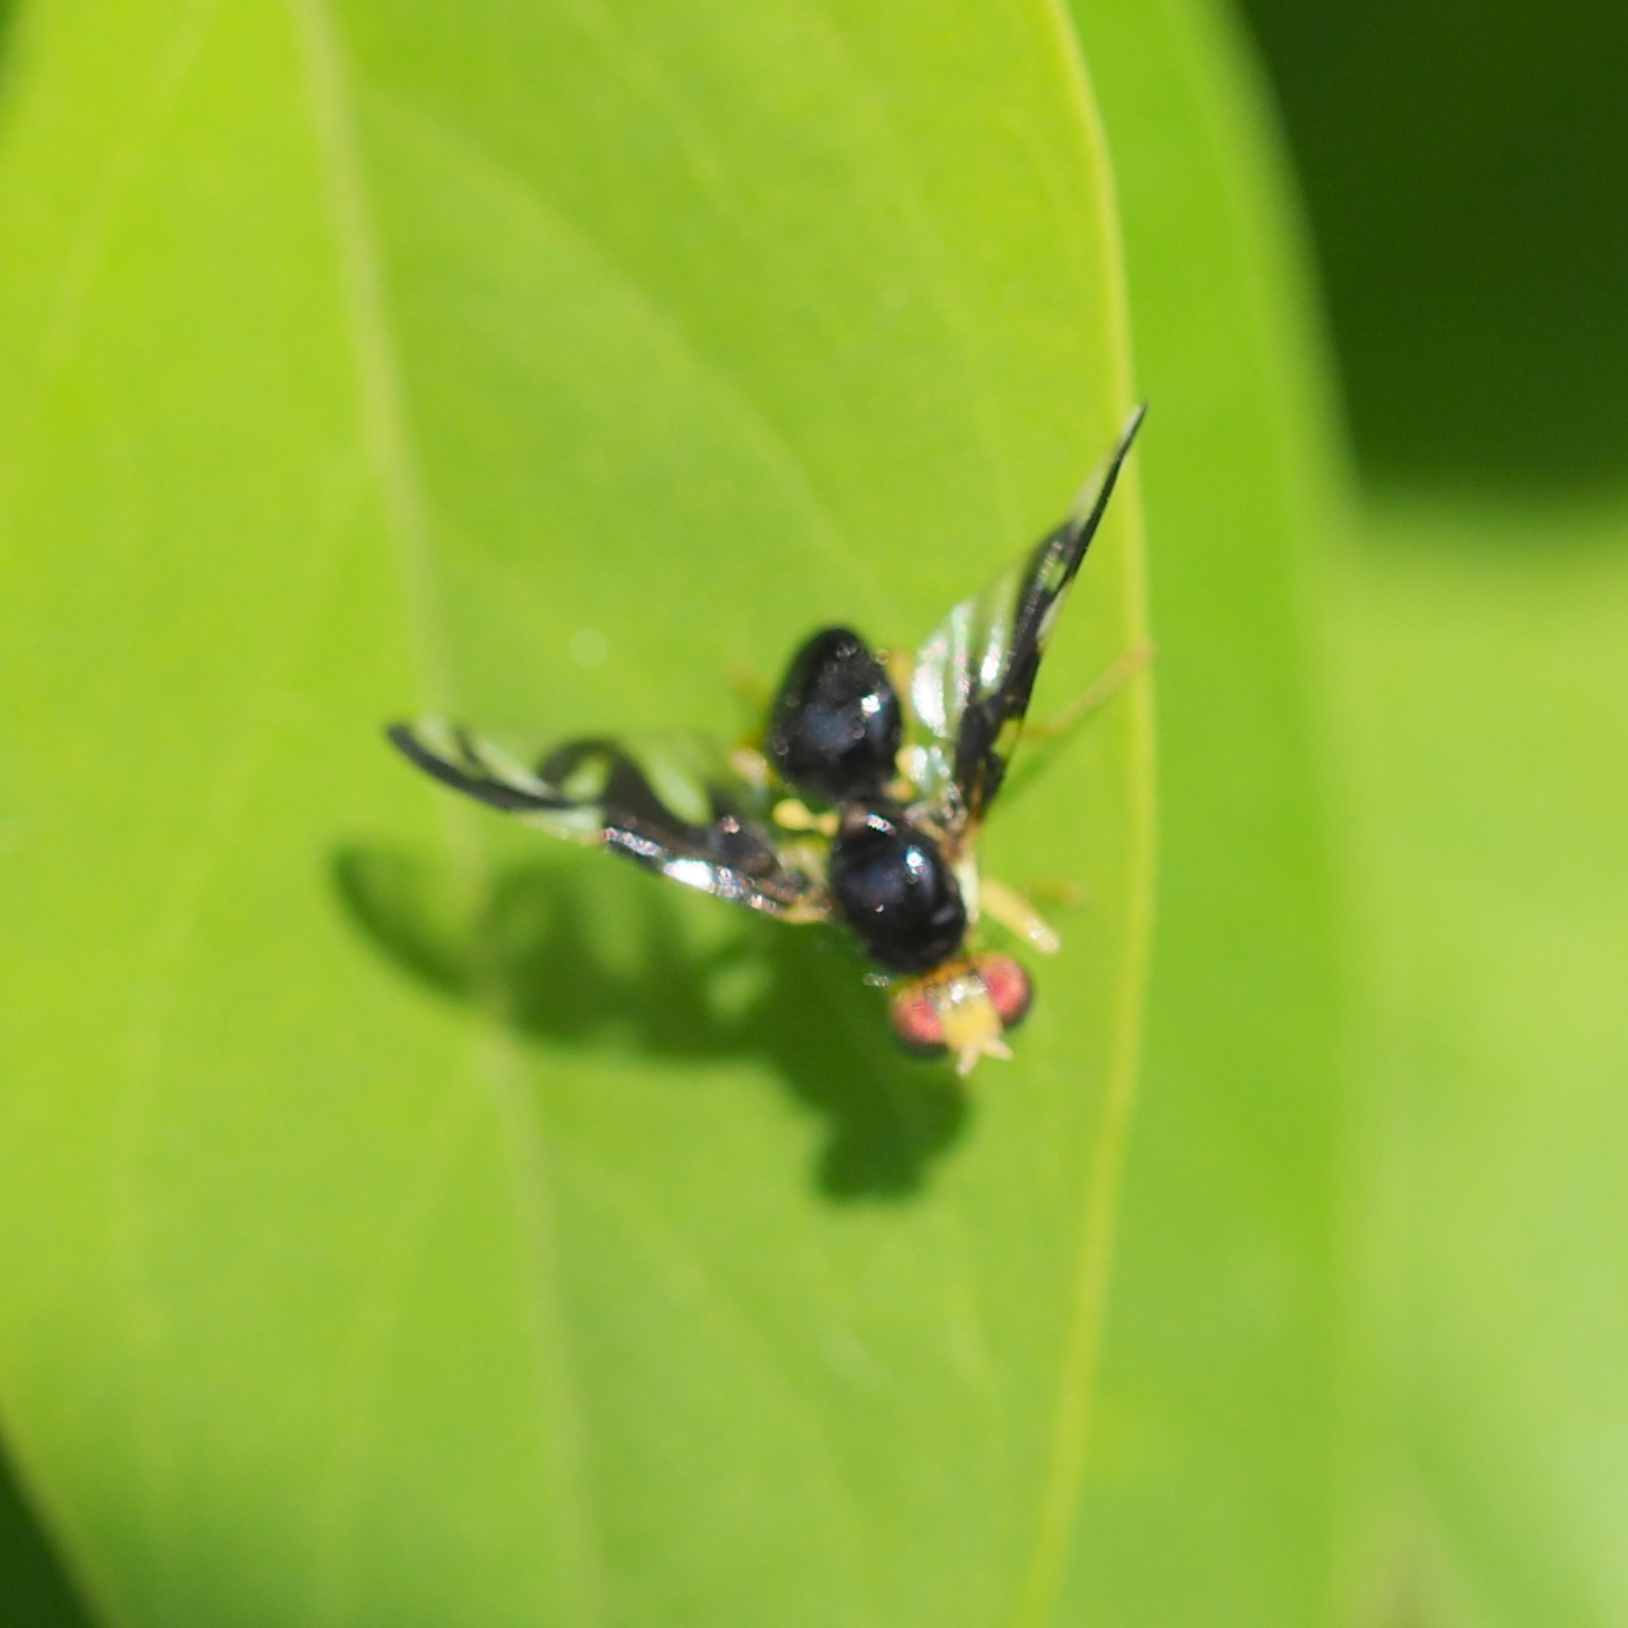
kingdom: Animalia
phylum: Arthropoda
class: Insecta
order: Diptera
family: Tephritidae
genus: Euleia
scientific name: Euleia heraclei
